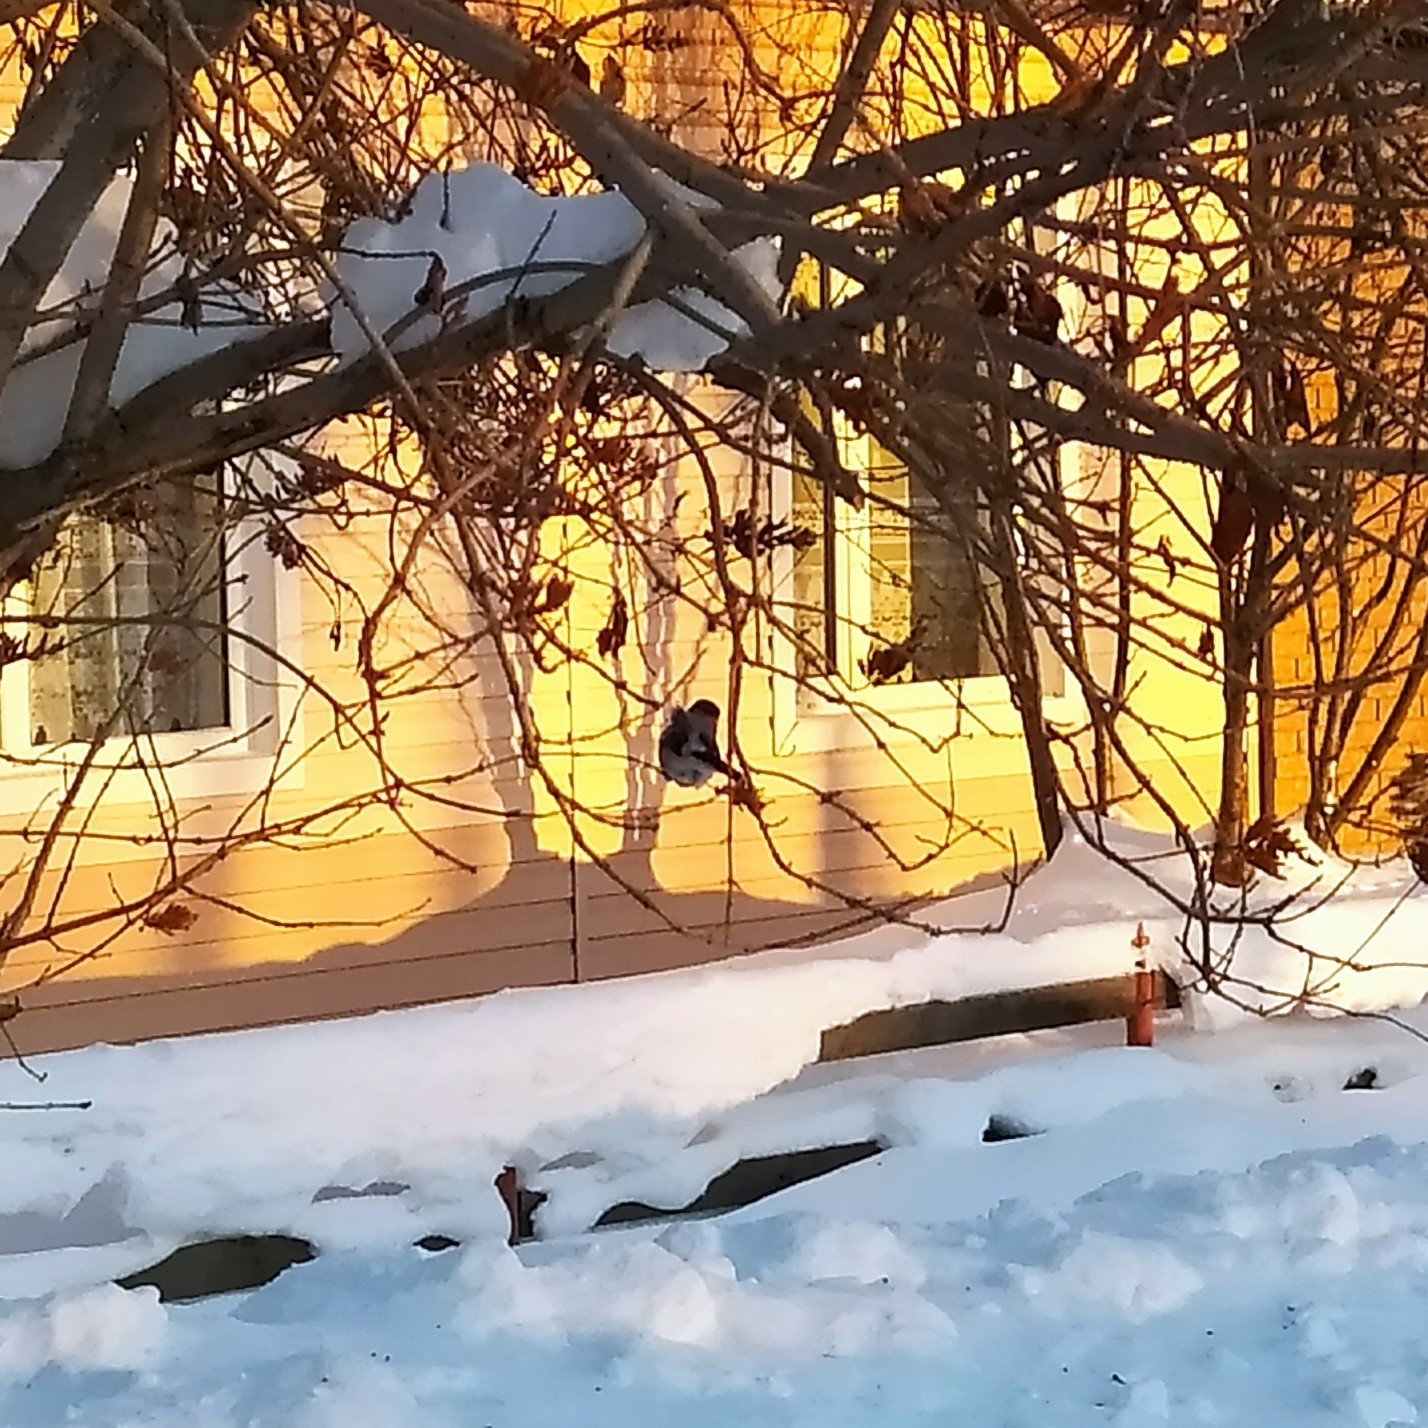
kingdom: Animalia
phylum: Chordata
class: Aves
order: Passeriformes
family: Fringillidae
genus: Pyrrhula
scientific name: Pyrrhula pyrrhula
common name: Eurasian bullfinch
